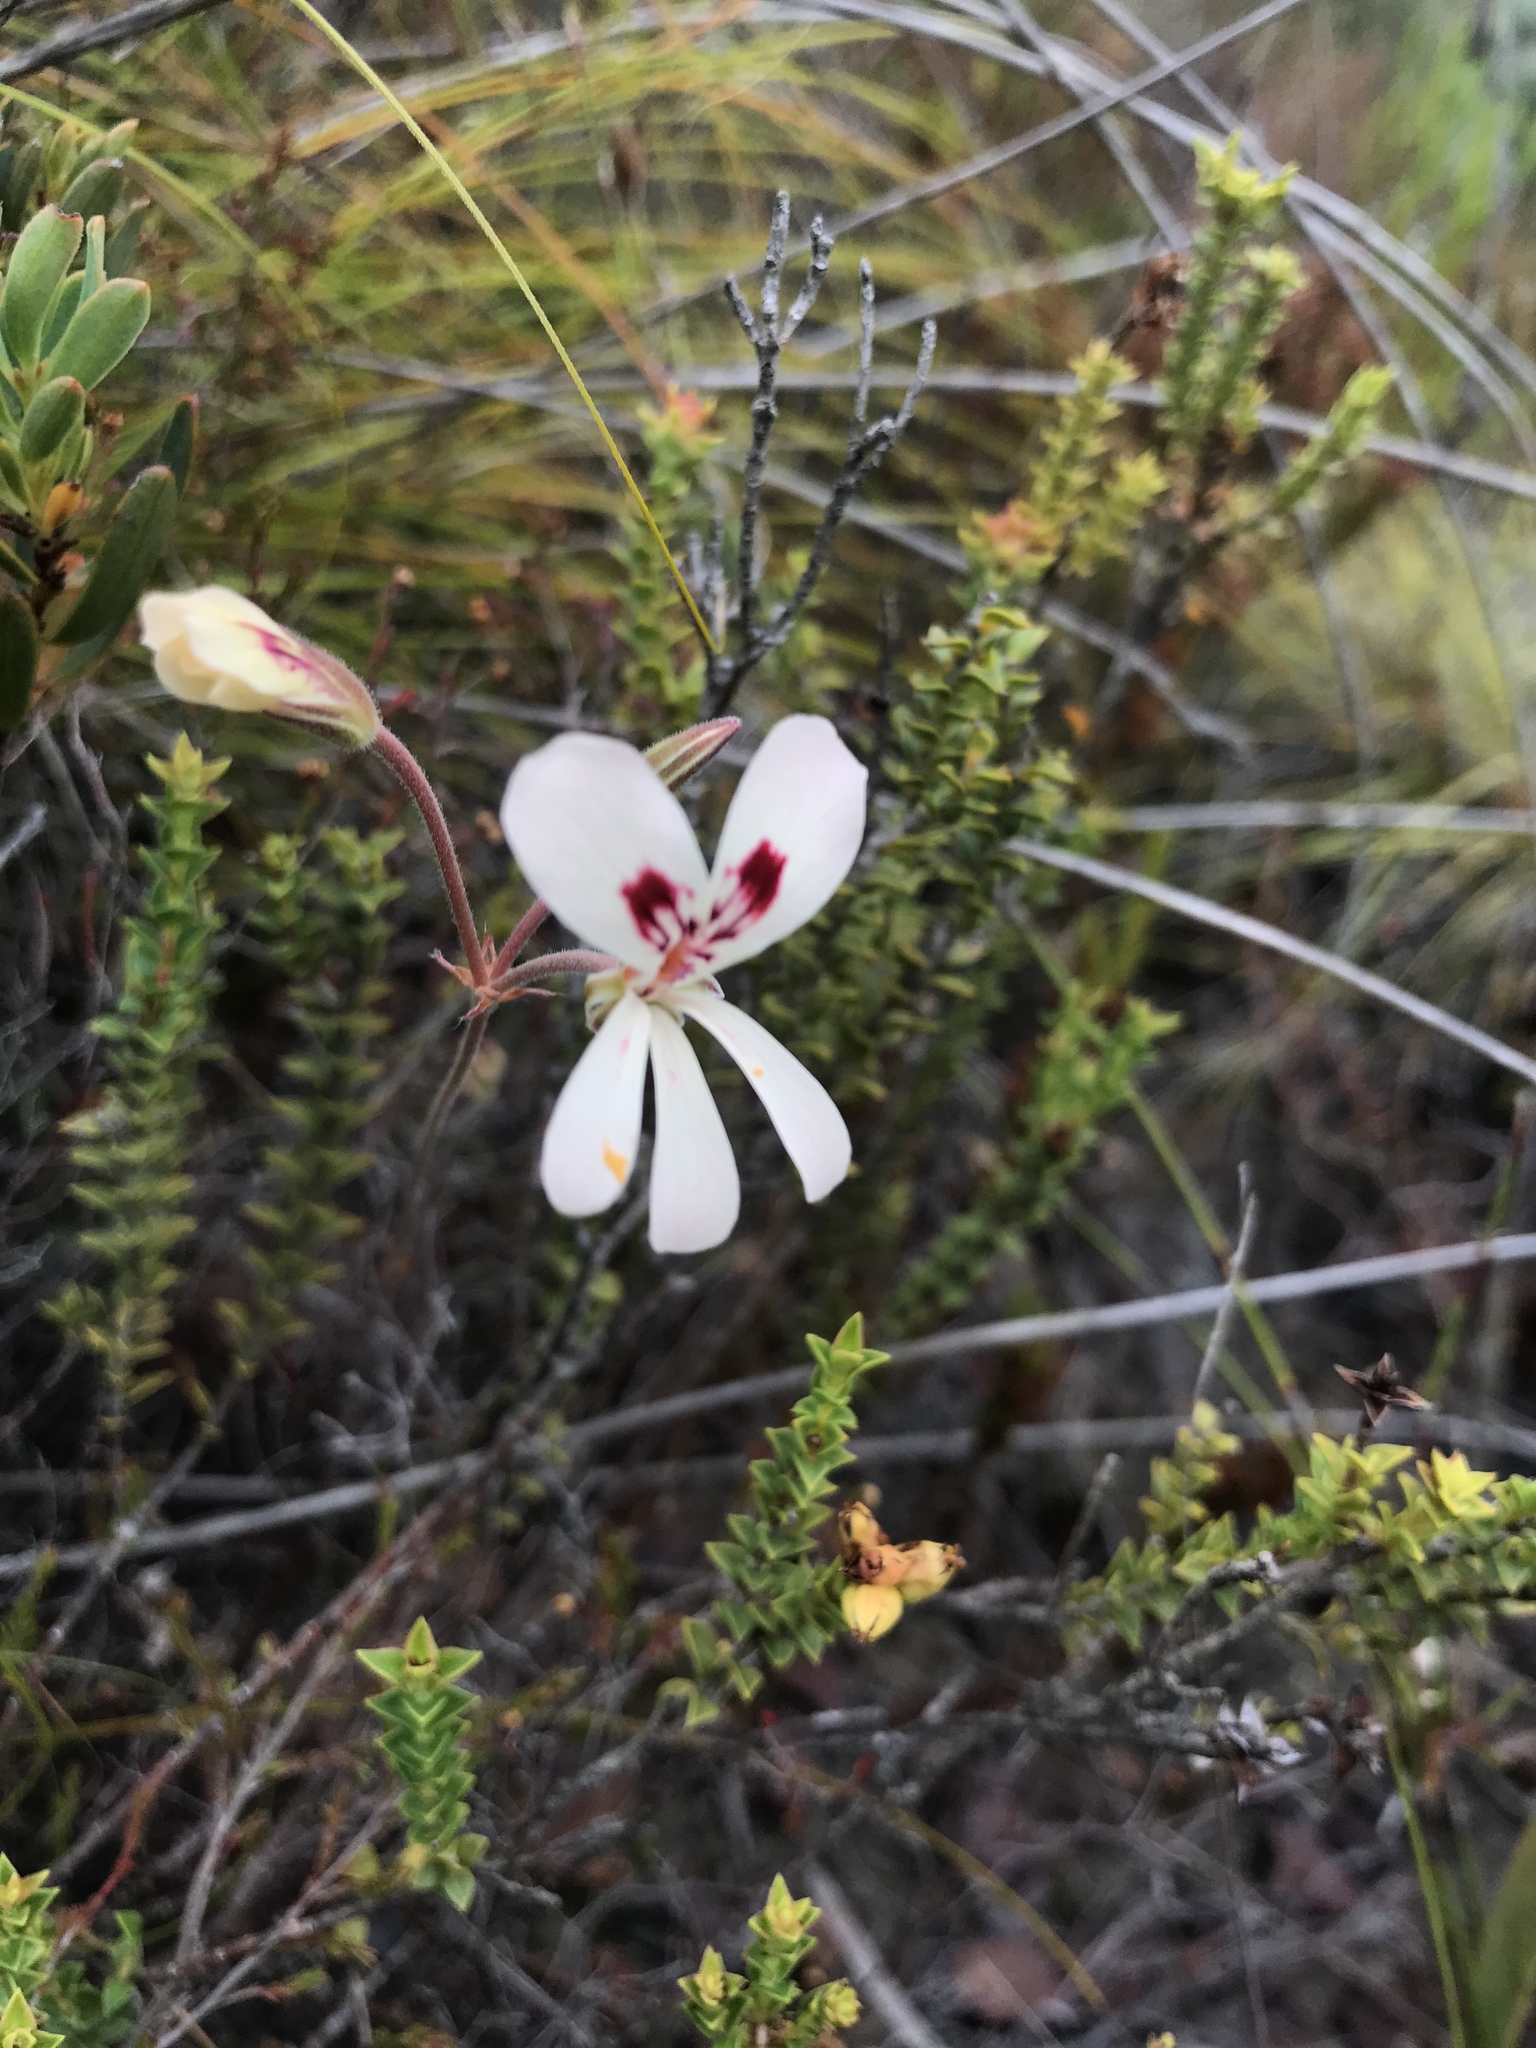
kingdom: Plantae
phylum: Tracheophyta
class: Magnoliopsida
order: Geraniales
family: Geraniaceae
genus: Pelargonium
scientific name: Pelargonium pinnatum
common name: Pinnated pelargonium
